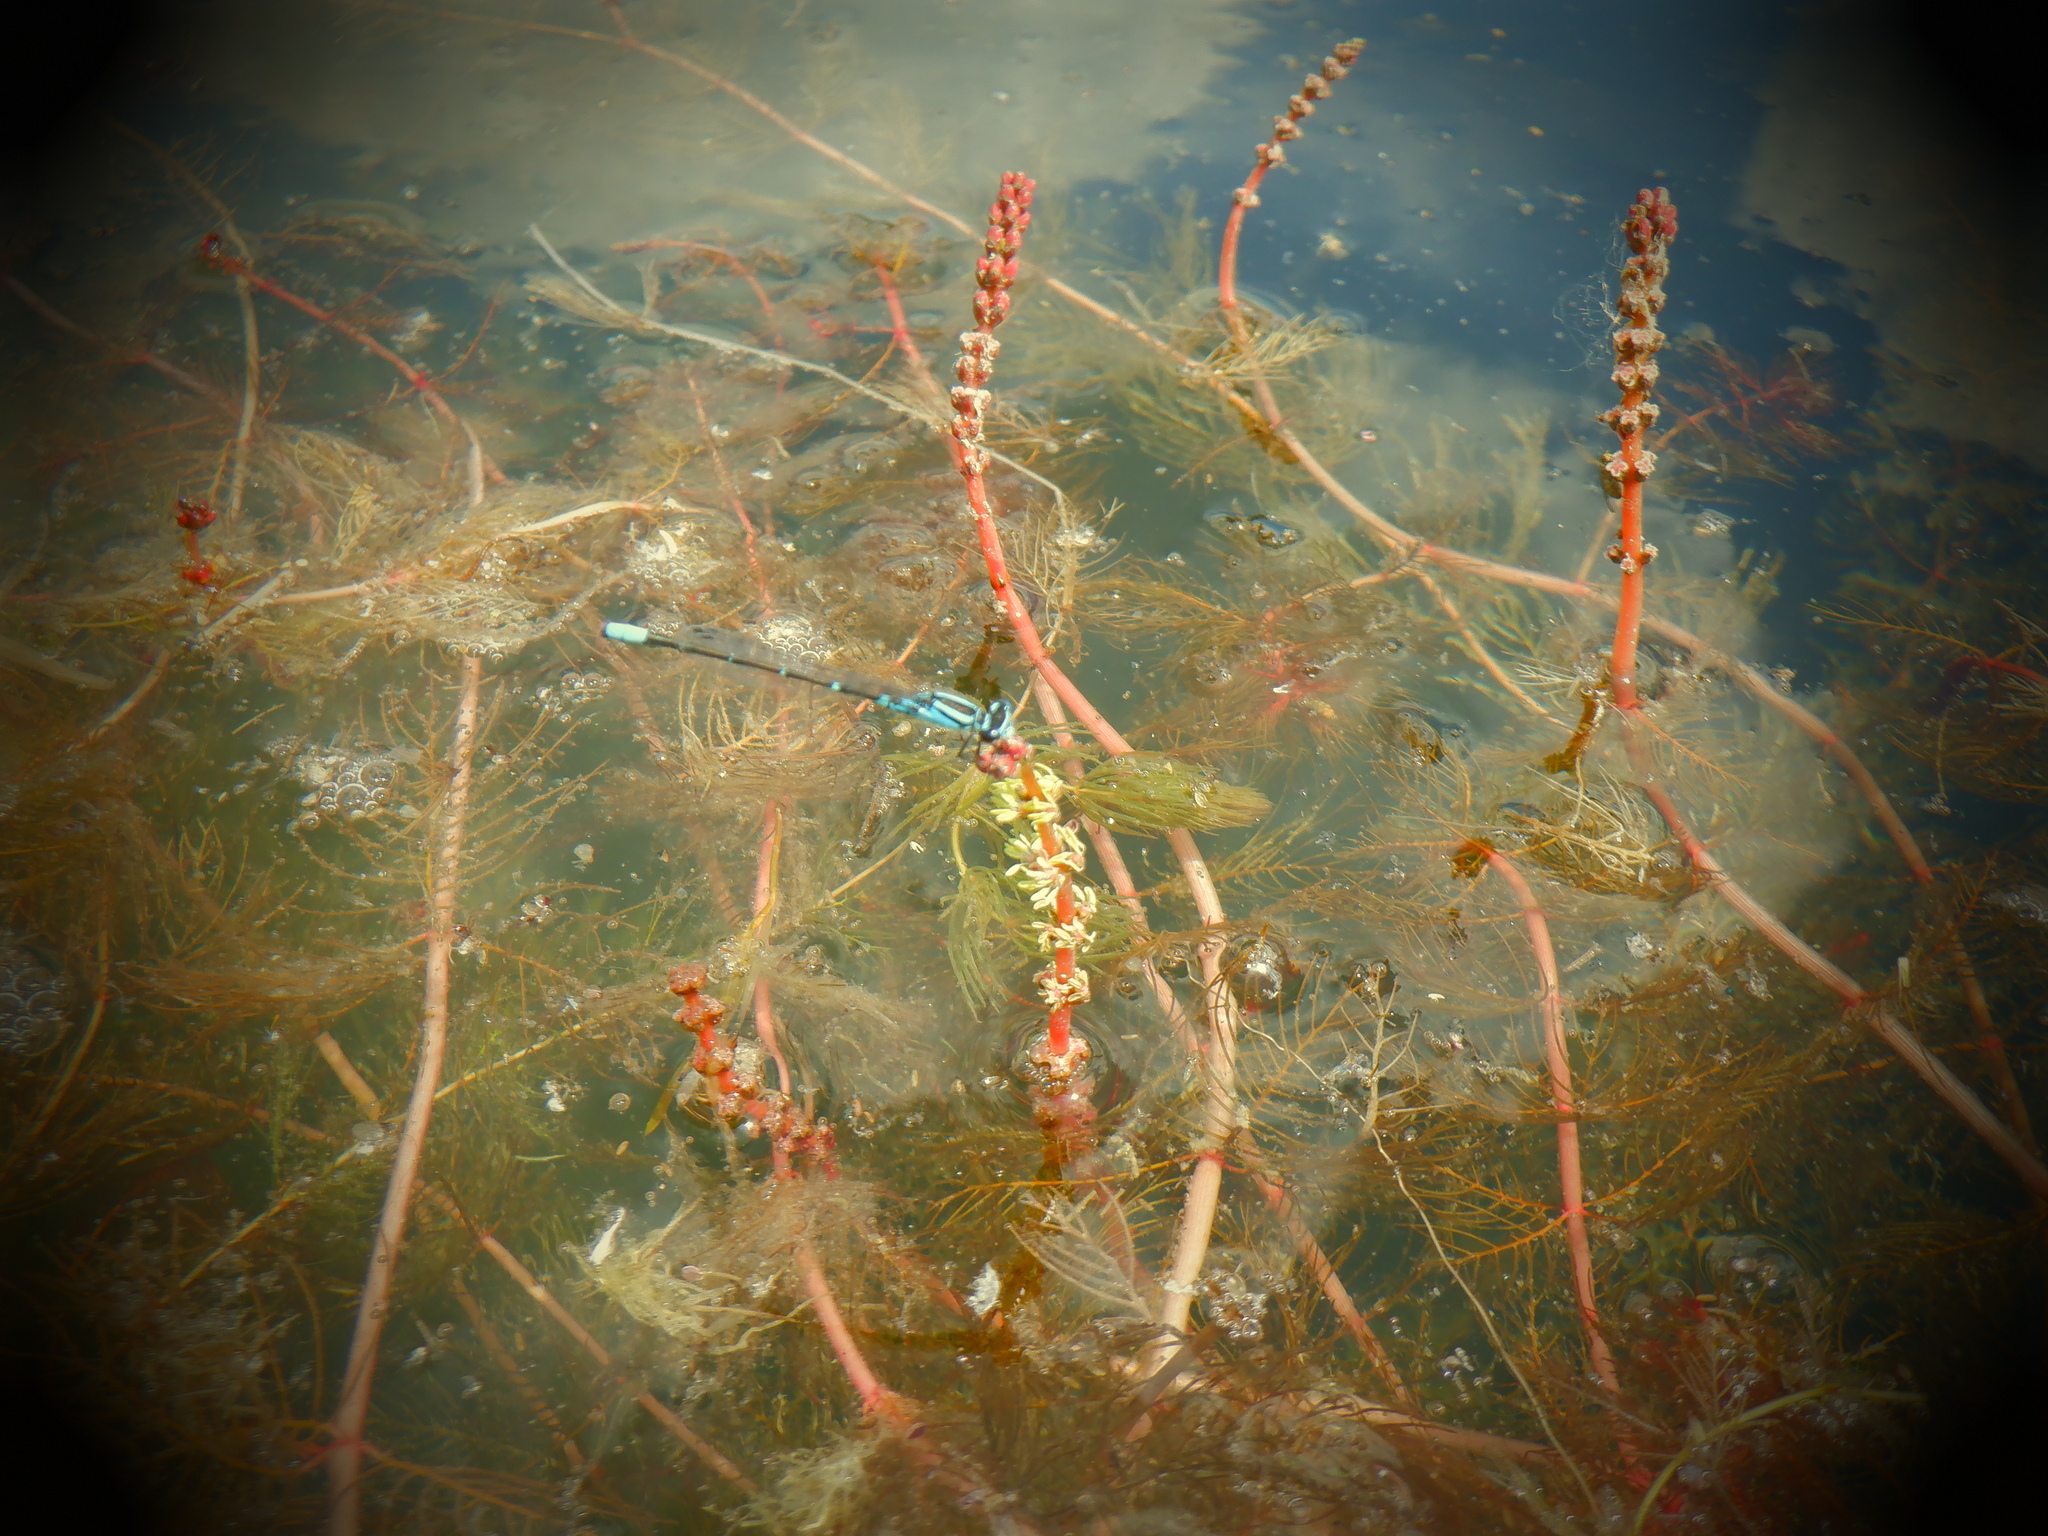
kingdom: Animalia
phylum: Arthropoda
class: Insecta
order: Odonata
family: Coenagrionidae
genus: Enallagma
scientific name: Enallagma geminatum
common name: Skimming bluet
